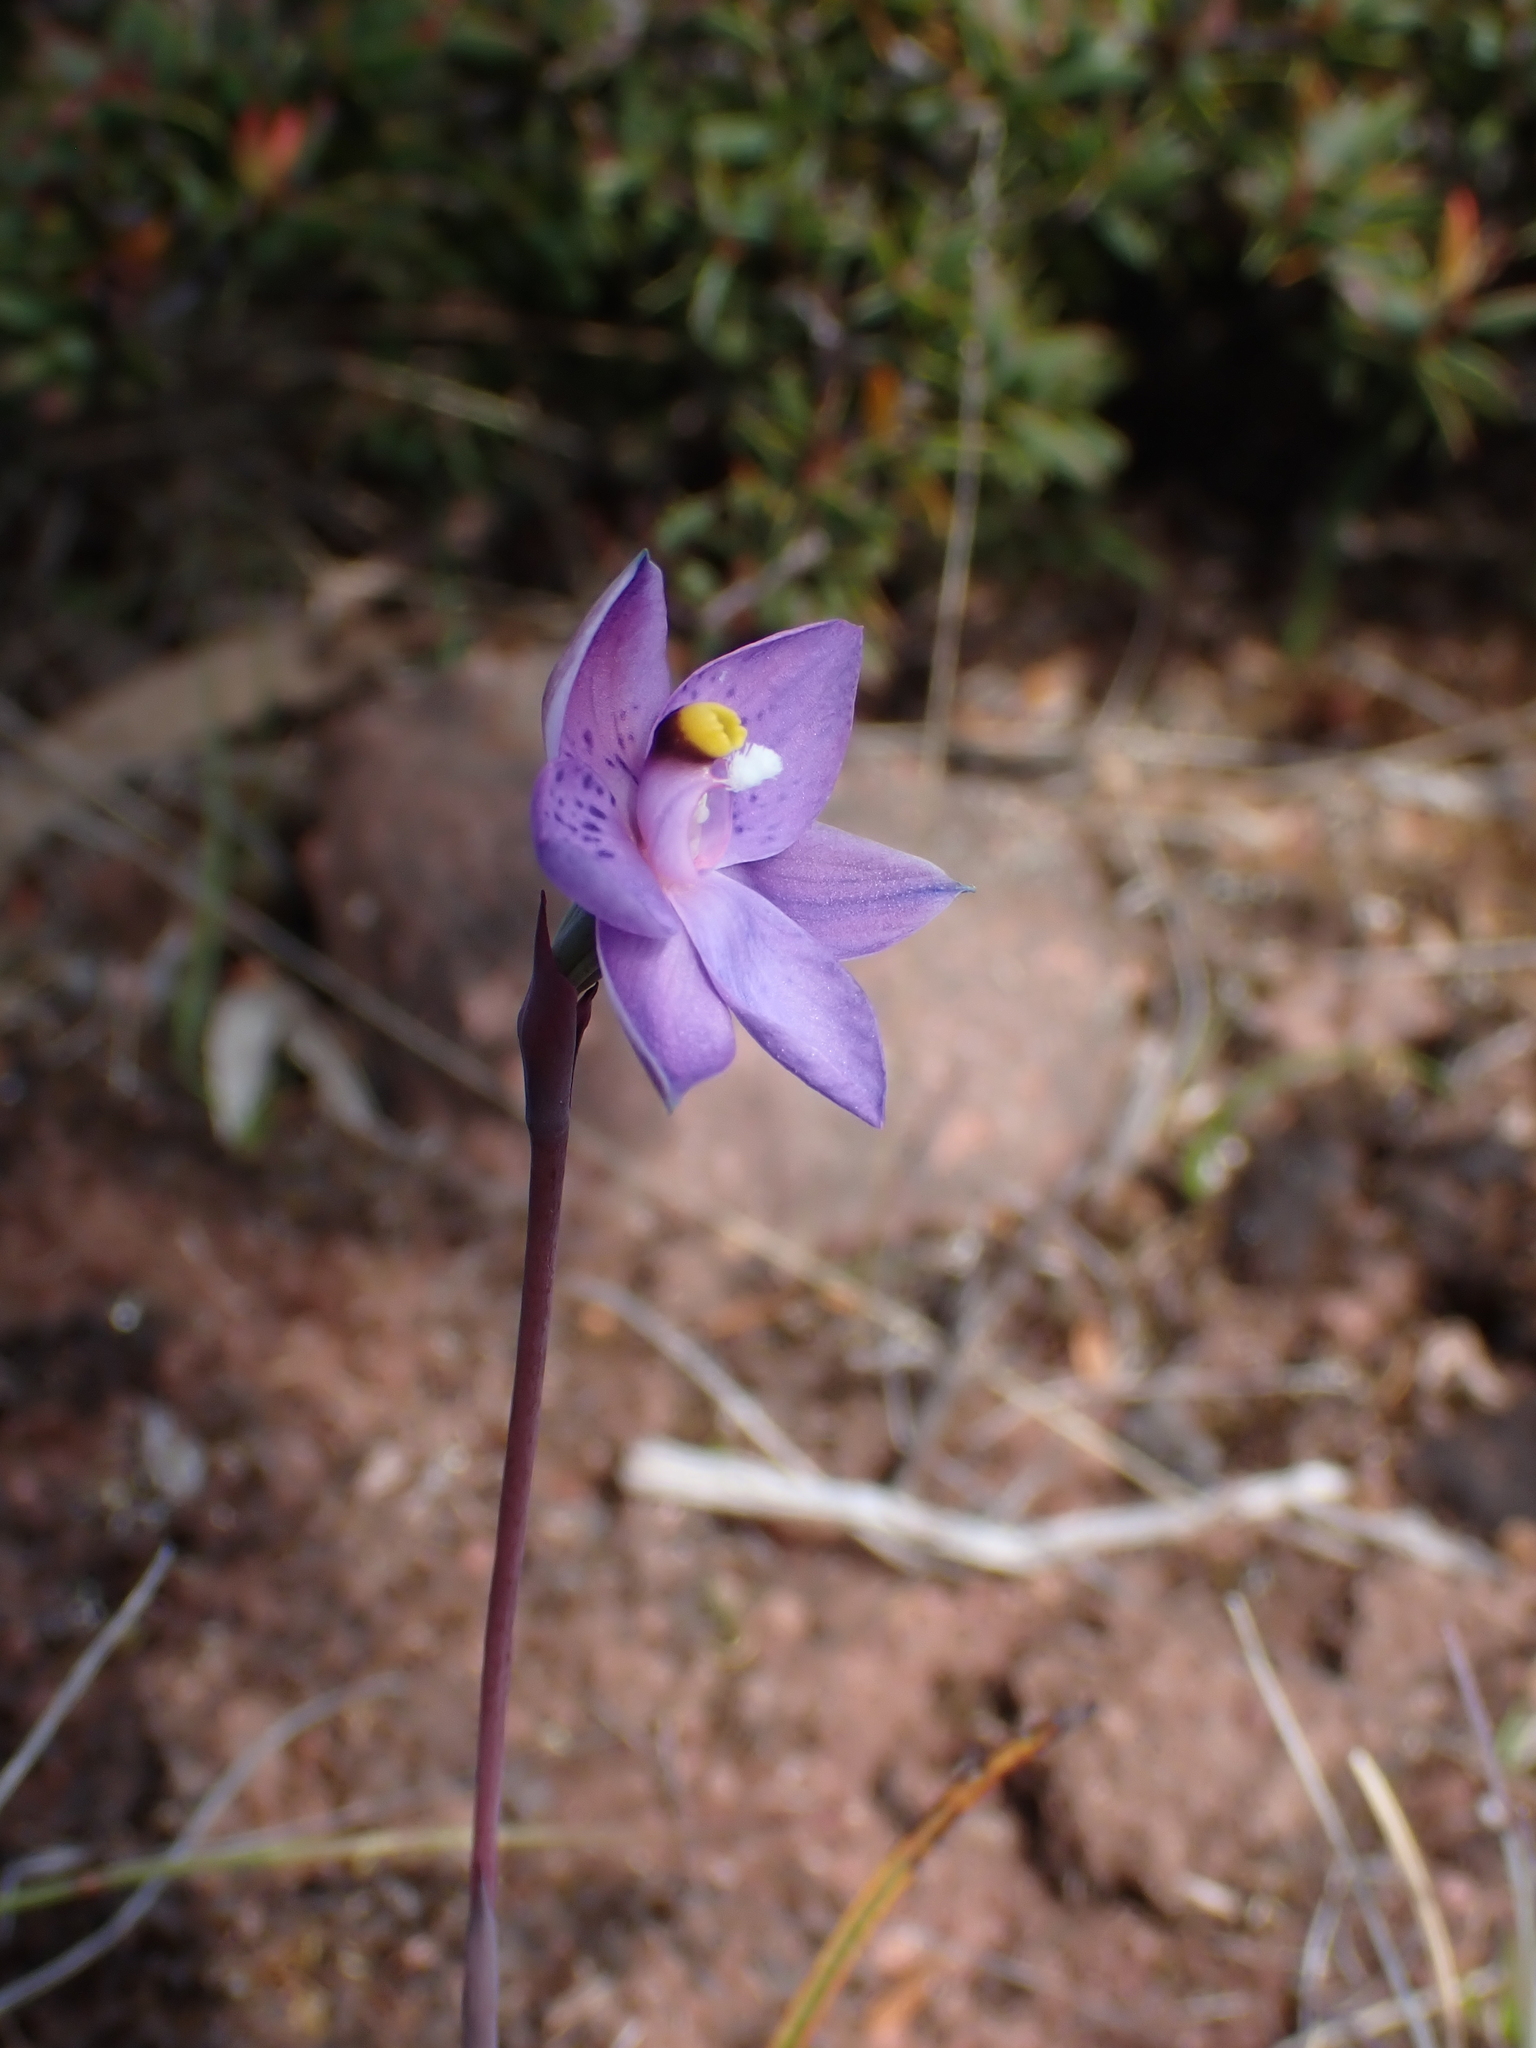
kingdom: Plantae
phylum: Tracheophyta
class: Liliopsida
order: Asparagales
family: Orchidaceae
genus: Thelymitra
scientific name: Thelymitra simulata
